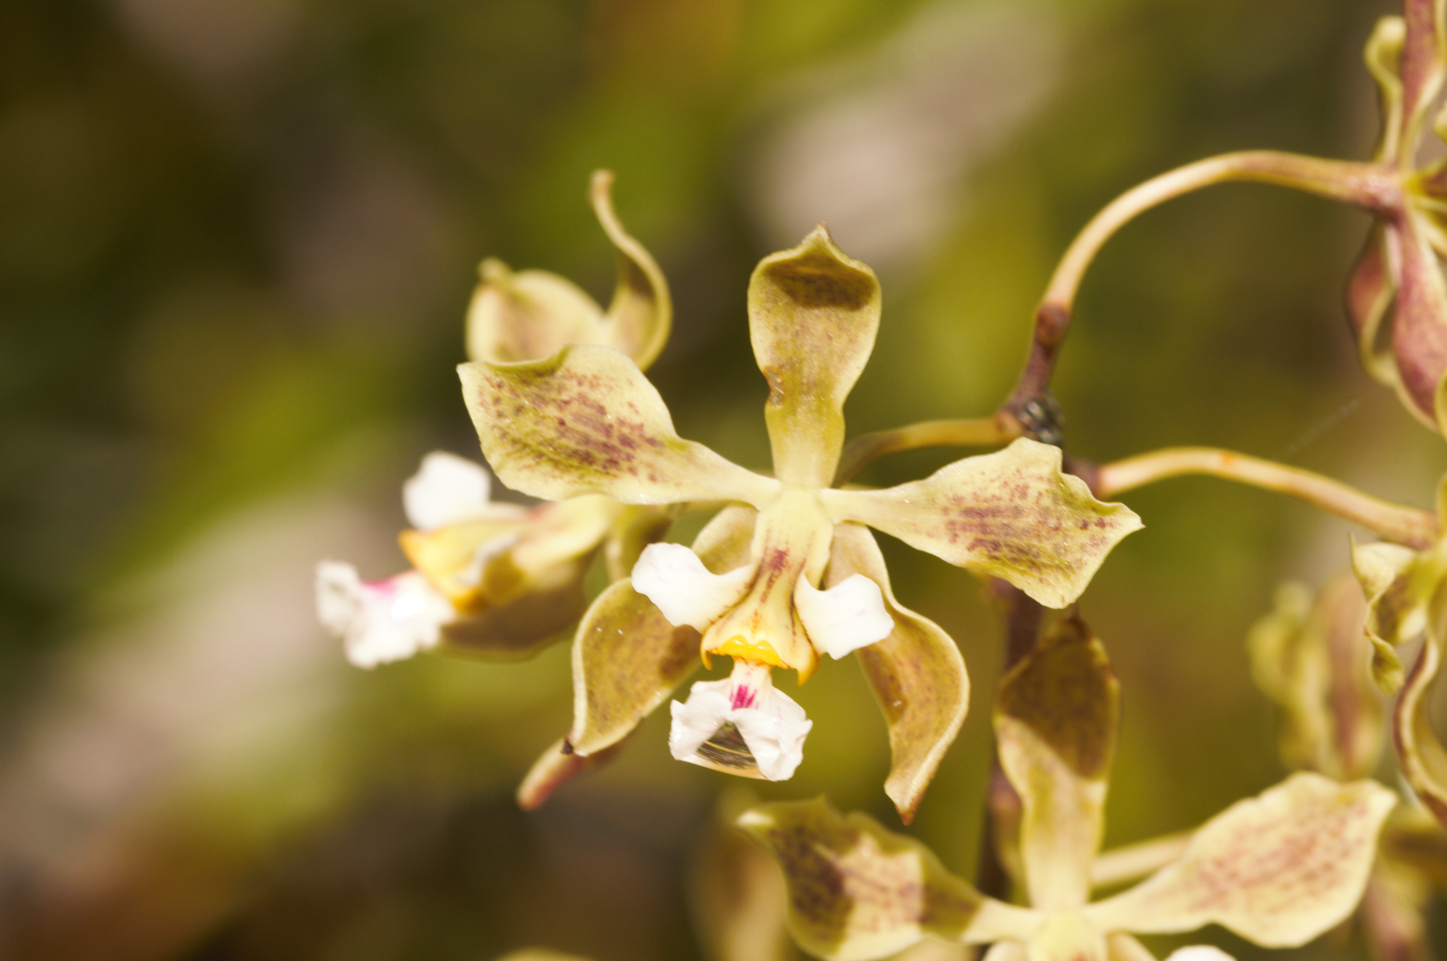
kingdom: Plantae
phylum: Tracheophyta
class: Liliopsida
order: Asparagales
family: Orchidaceae
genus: Encyclia
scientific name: Encyclia granitica
